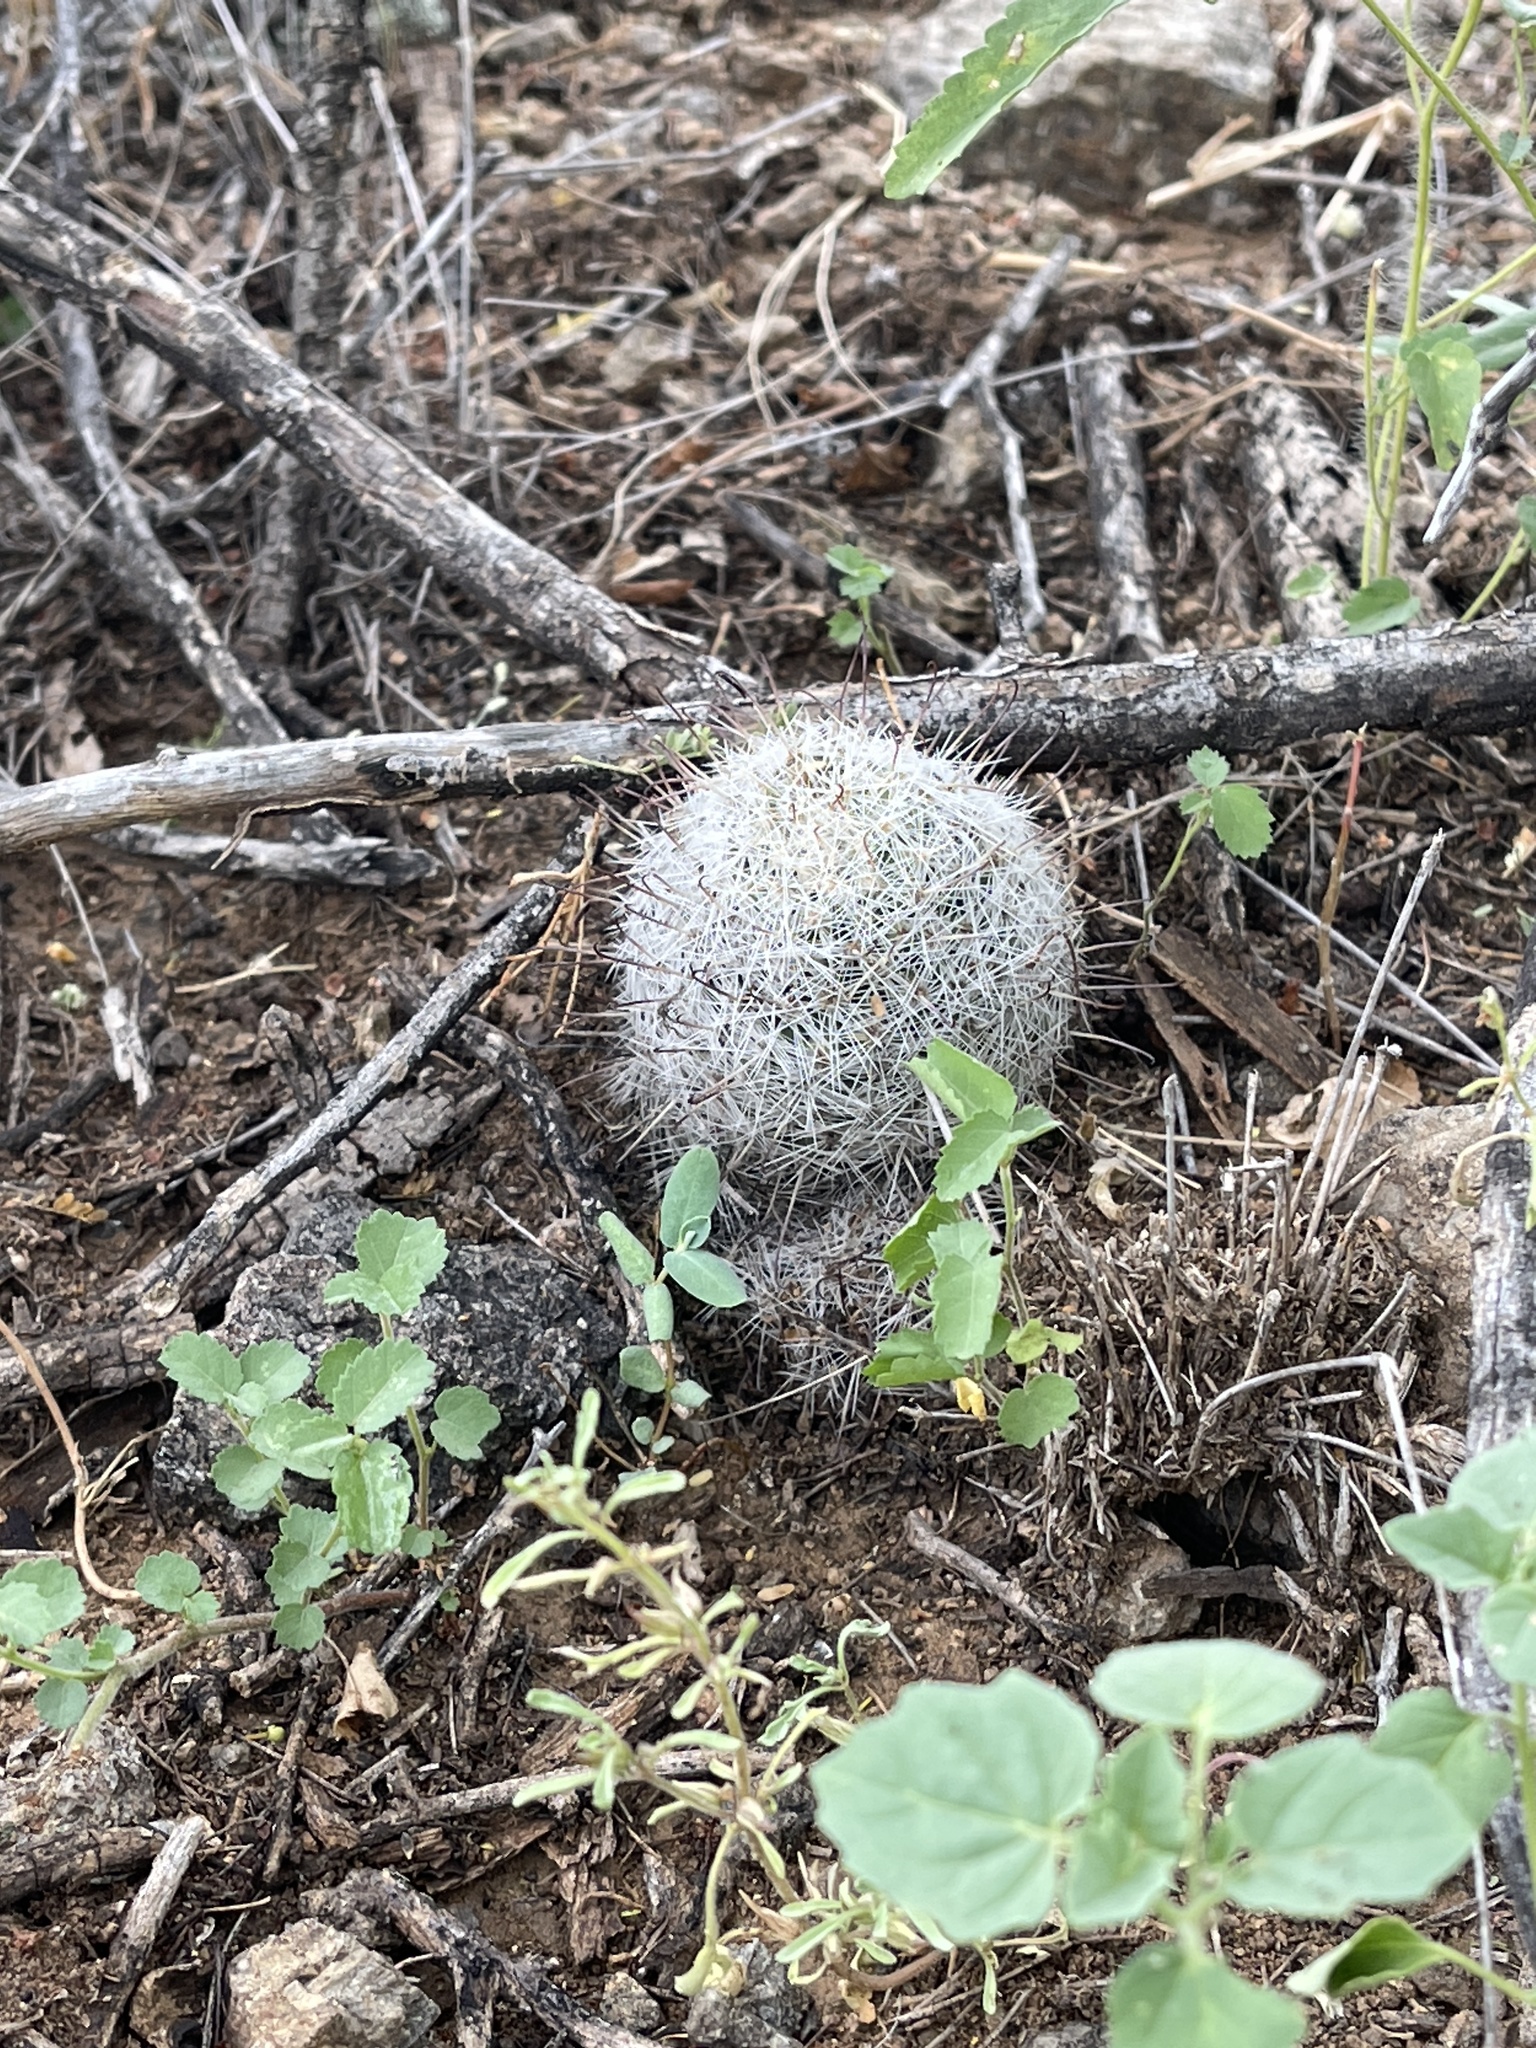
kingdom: Plantae
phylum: Tracheophyta
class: Magnoliopsida
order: Caryophyllales
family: Cactaceae
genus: Cochemiea
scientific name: Cochemiea grahamii
